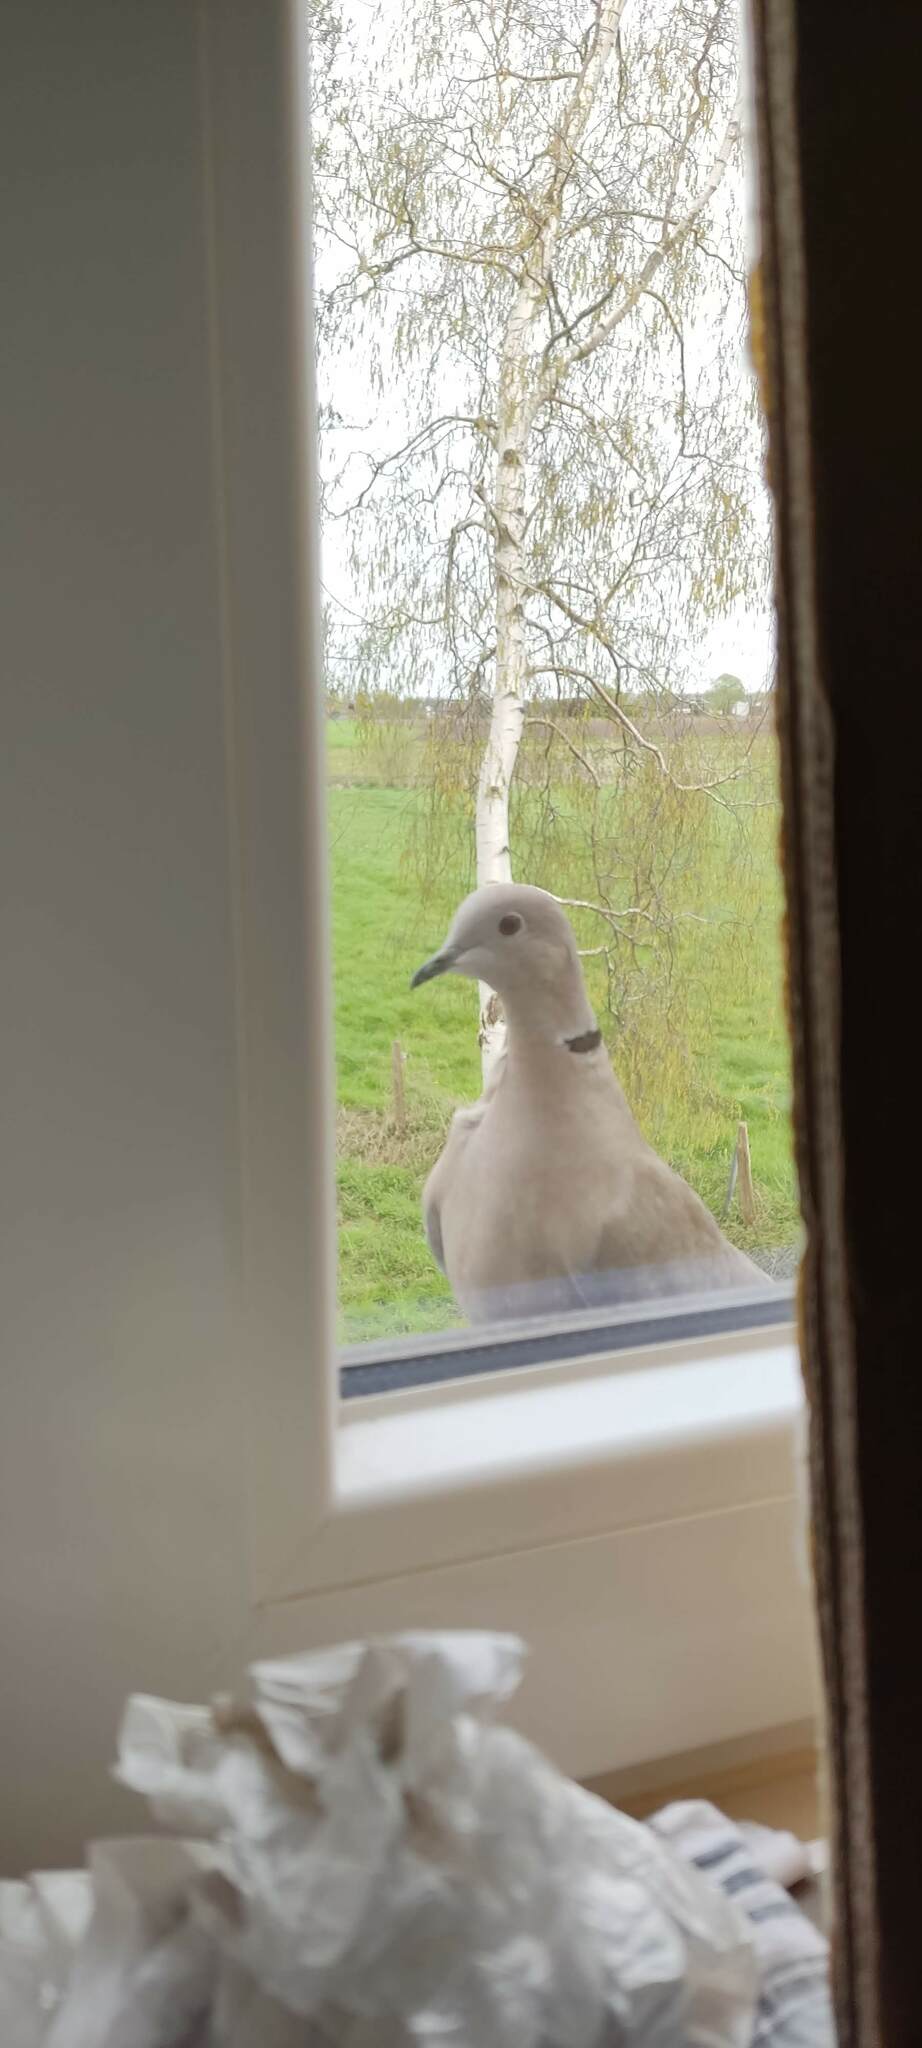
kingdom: Animalia
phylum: Chordata
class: Aves
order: Columbiformes
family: Columbidae
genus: Streptopelia
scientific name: Streptopelia decaocto
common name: Eurasian collared dove
